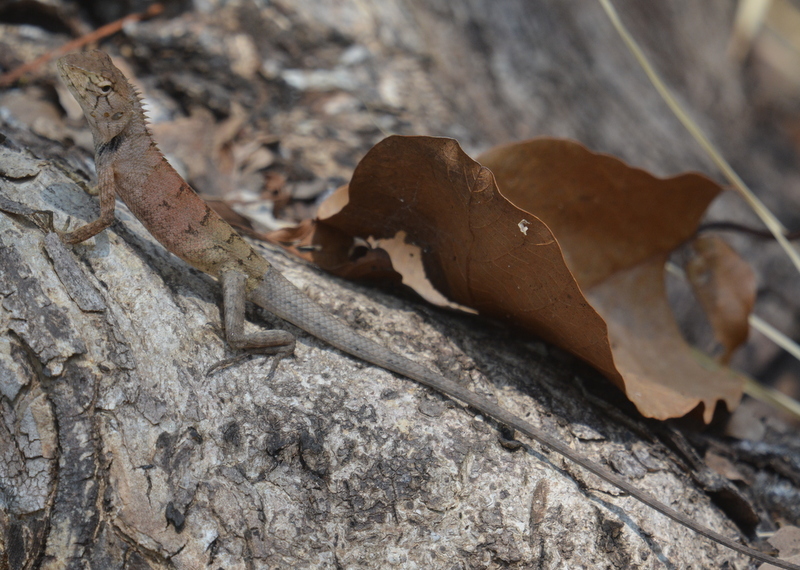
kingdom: Animalia
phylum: Chordata
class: Squamata
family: Agamidae
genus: Calotes
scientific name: Calotes versicolor
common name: Oriental garden lizard
